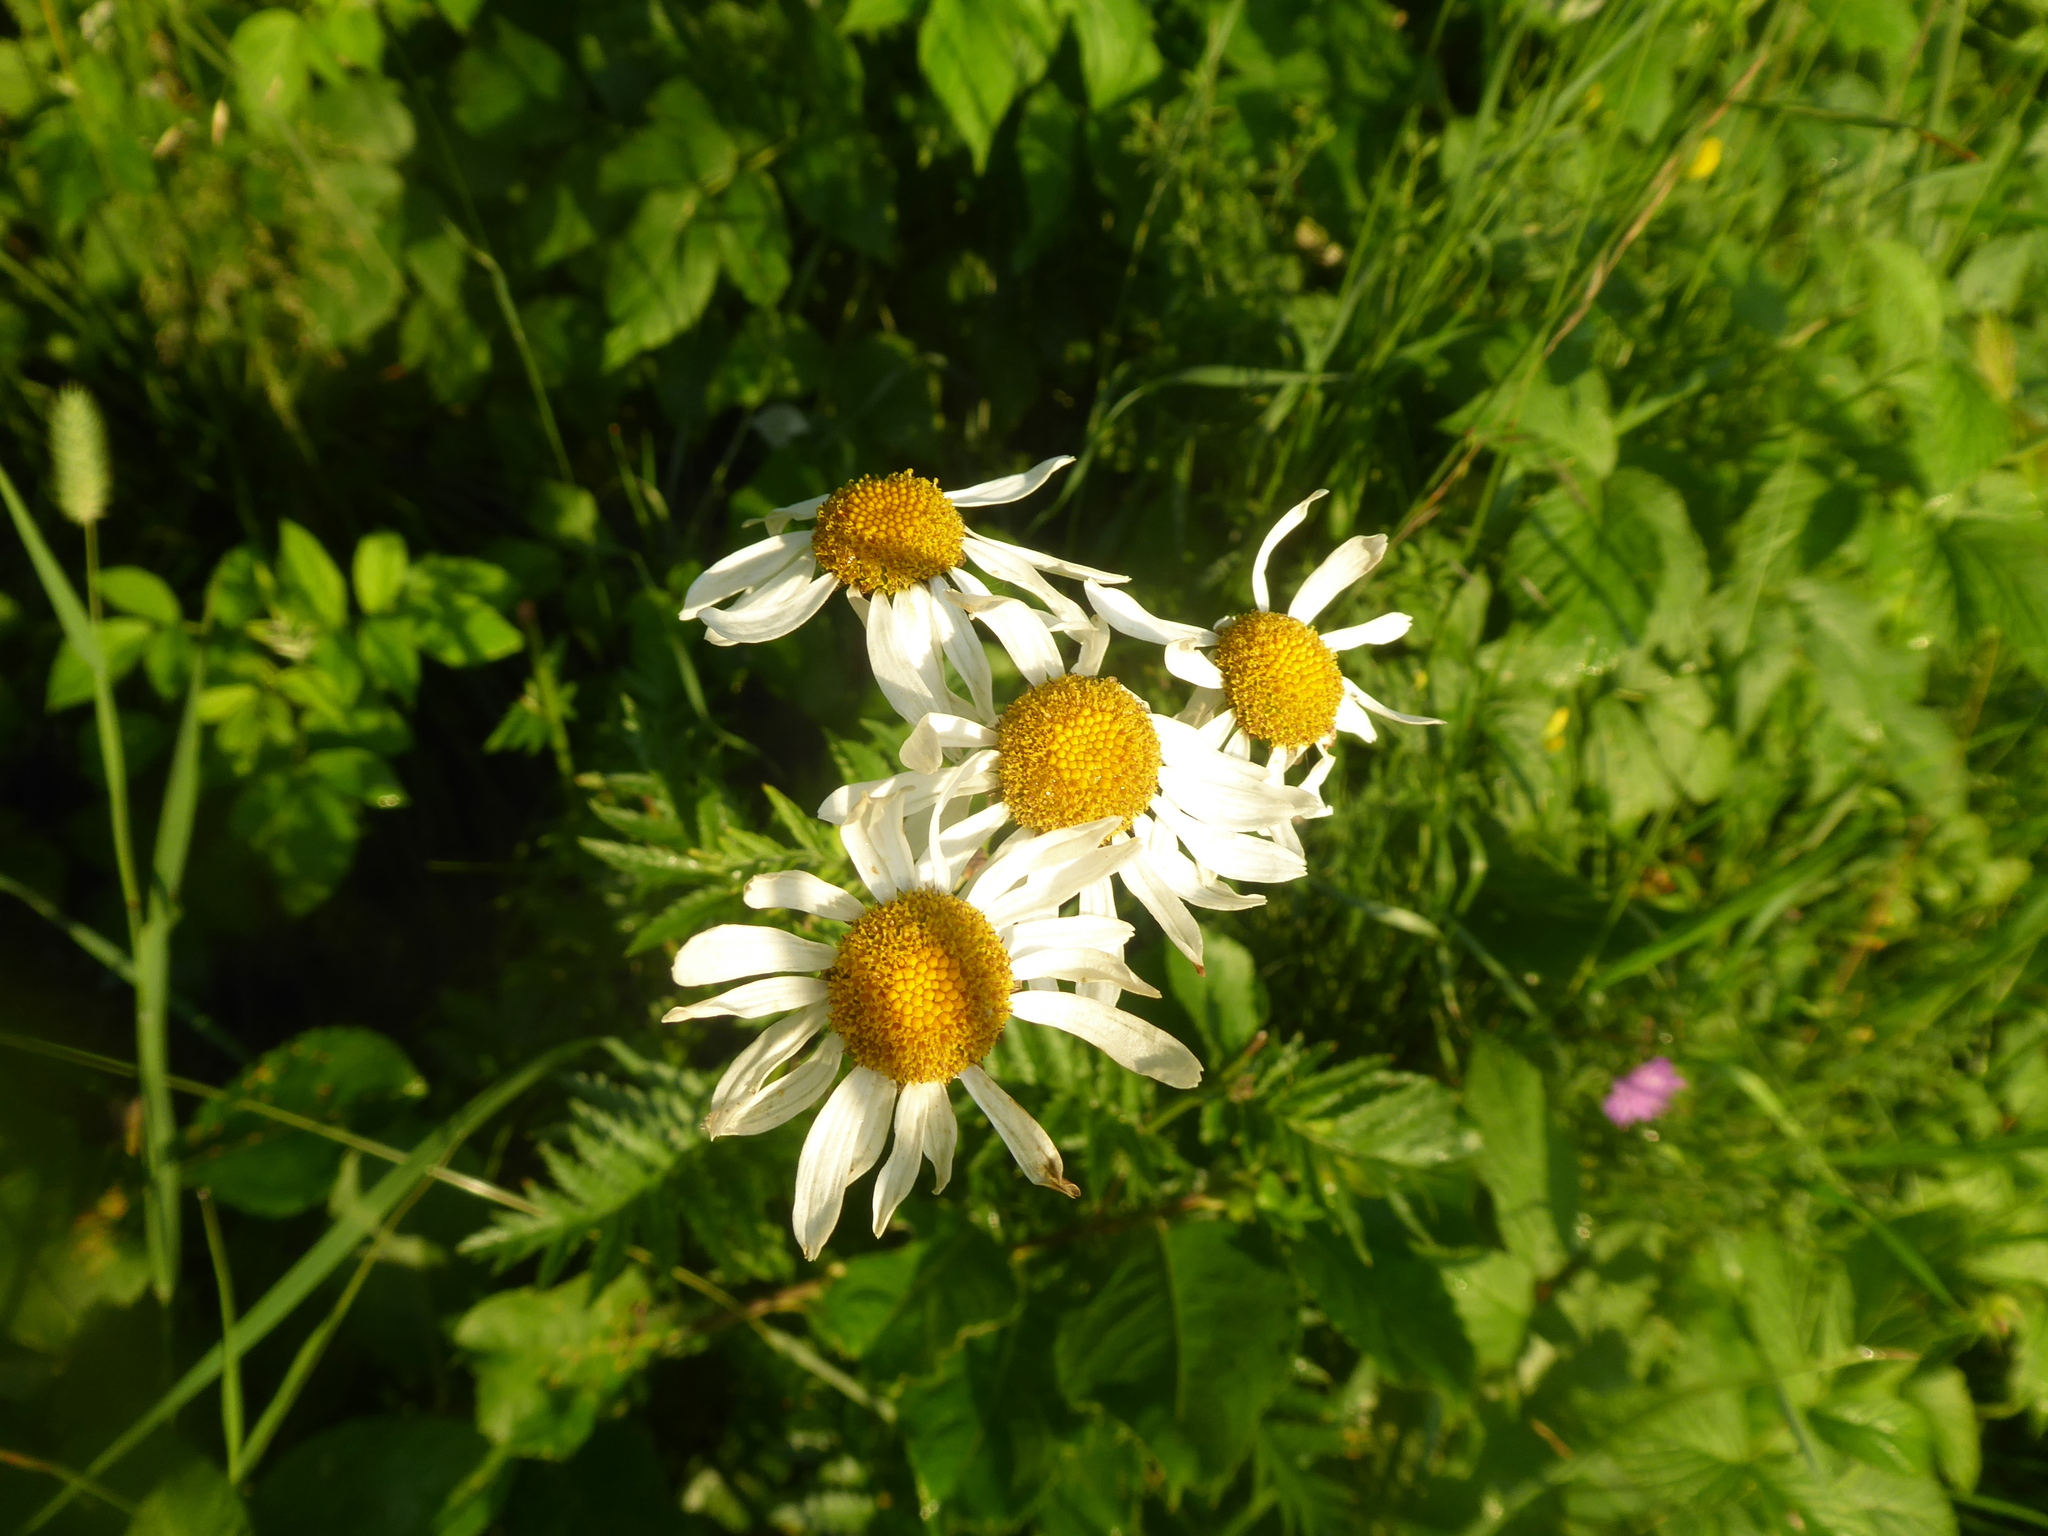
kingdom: Plantae
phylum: Tracheophyta
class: Magnoliopsida
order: Asterales
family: Asteraceae
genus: Tanacetum
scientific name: Tanacetum corymbosum
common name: Scentless feverfew
